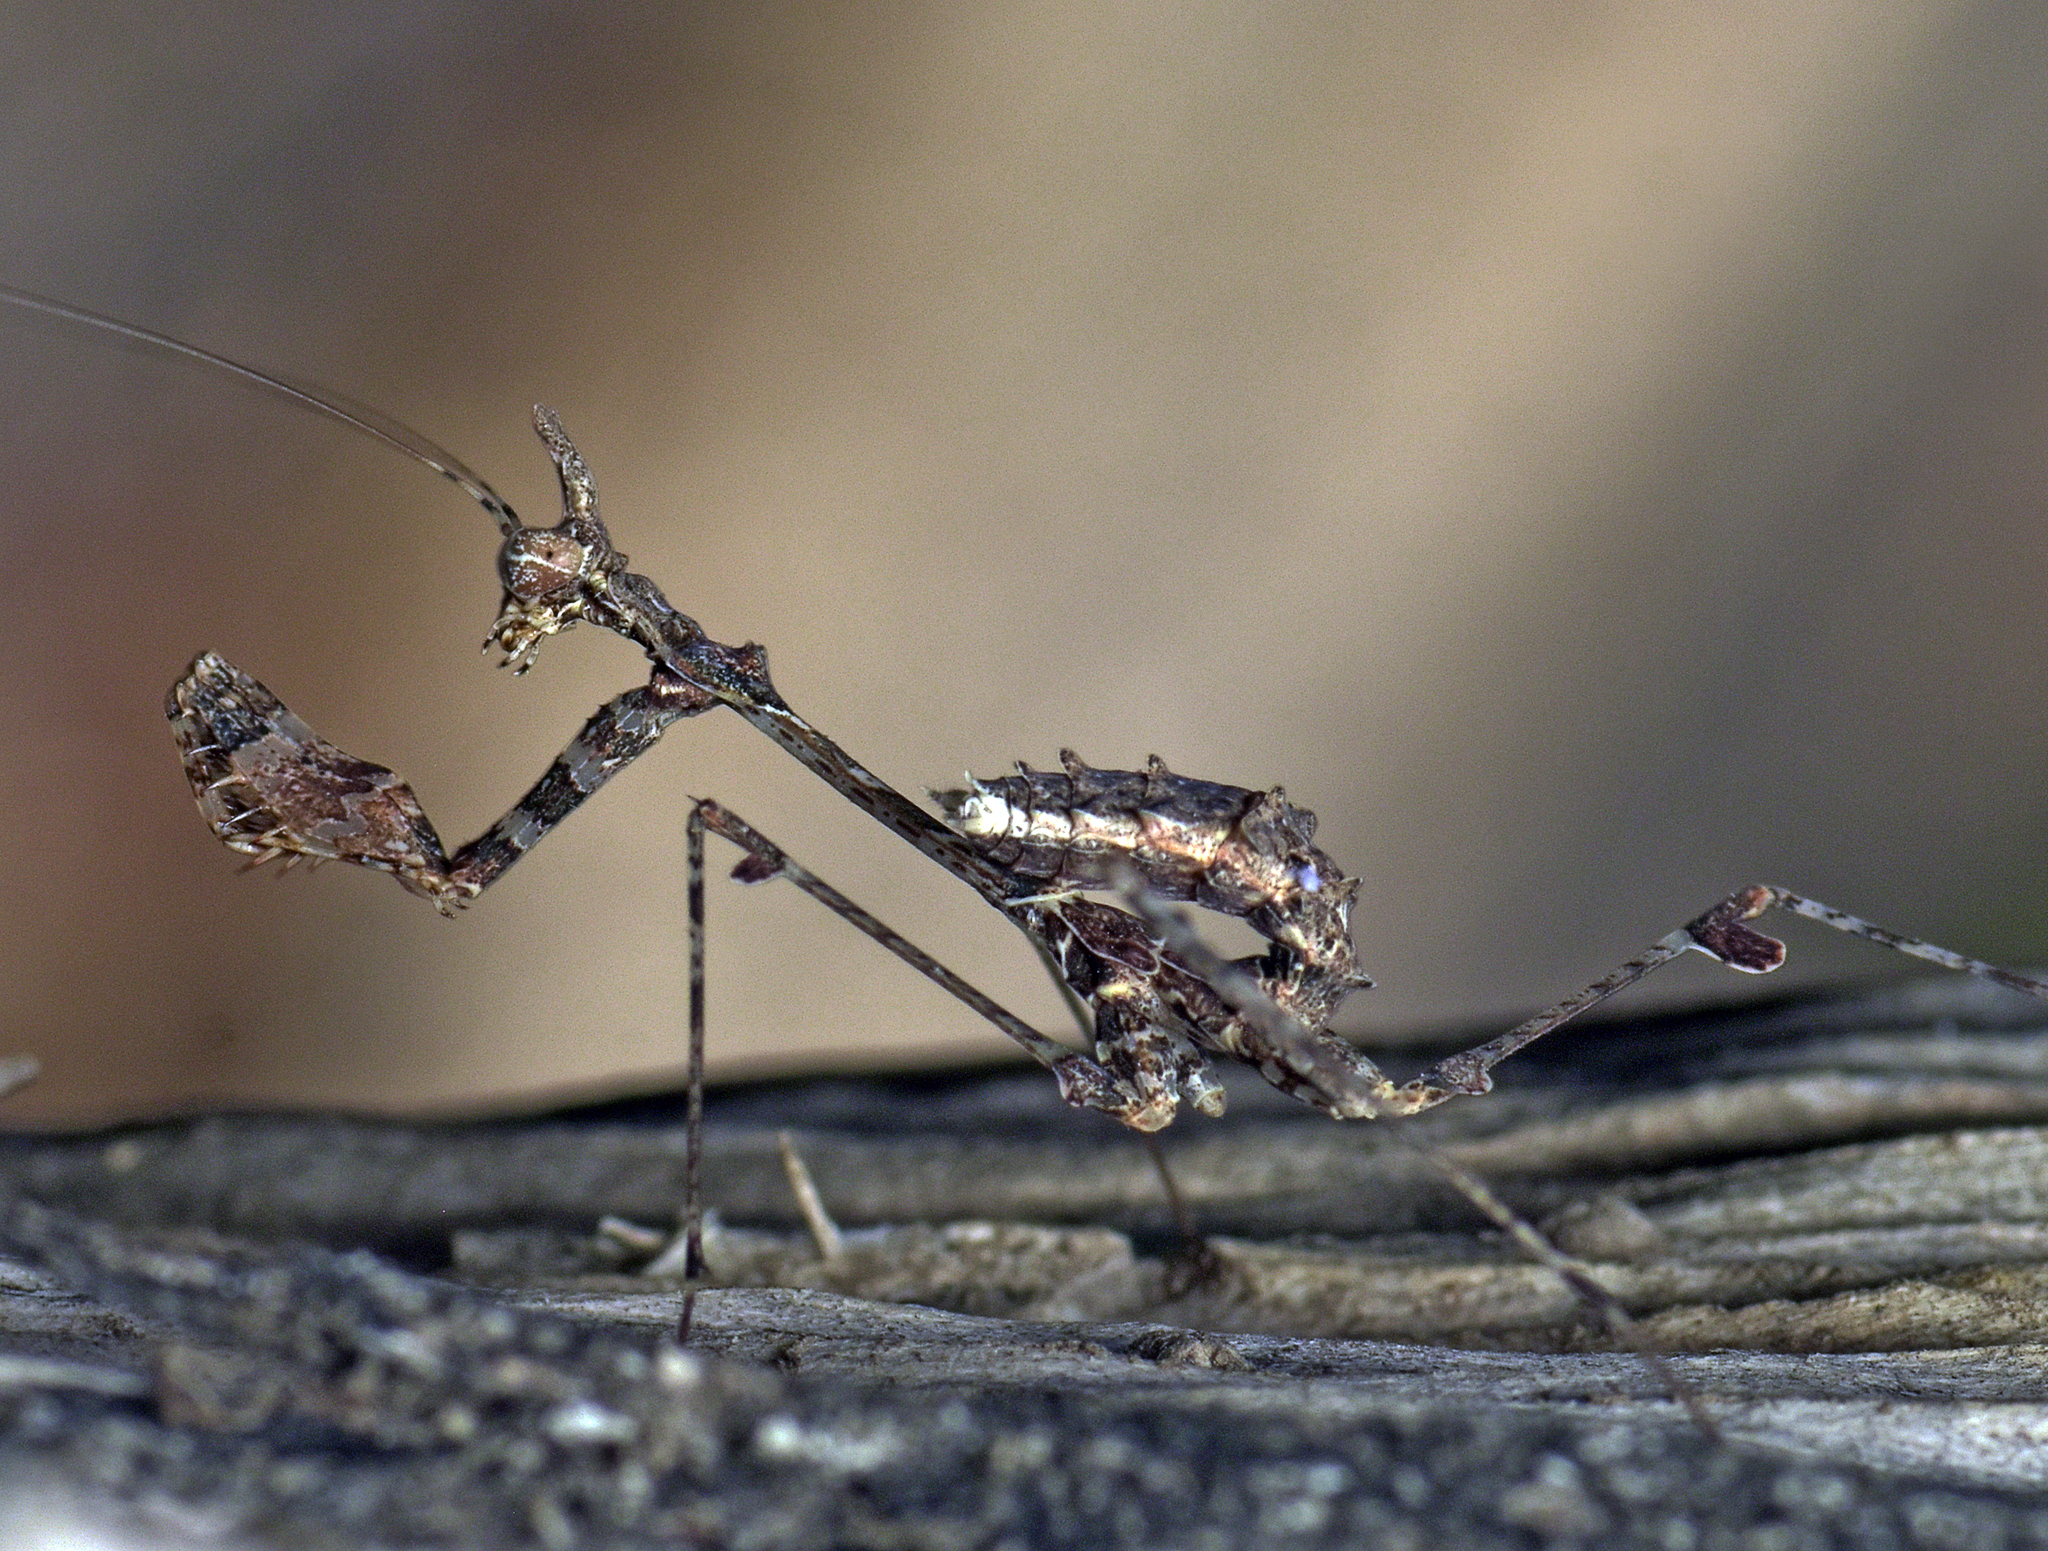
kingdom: Animalia
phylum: Arthropoda
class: Insecta
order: Mantodea
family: Hymenopodidae
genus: Sibylla
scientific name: Sibylla pretiosa
